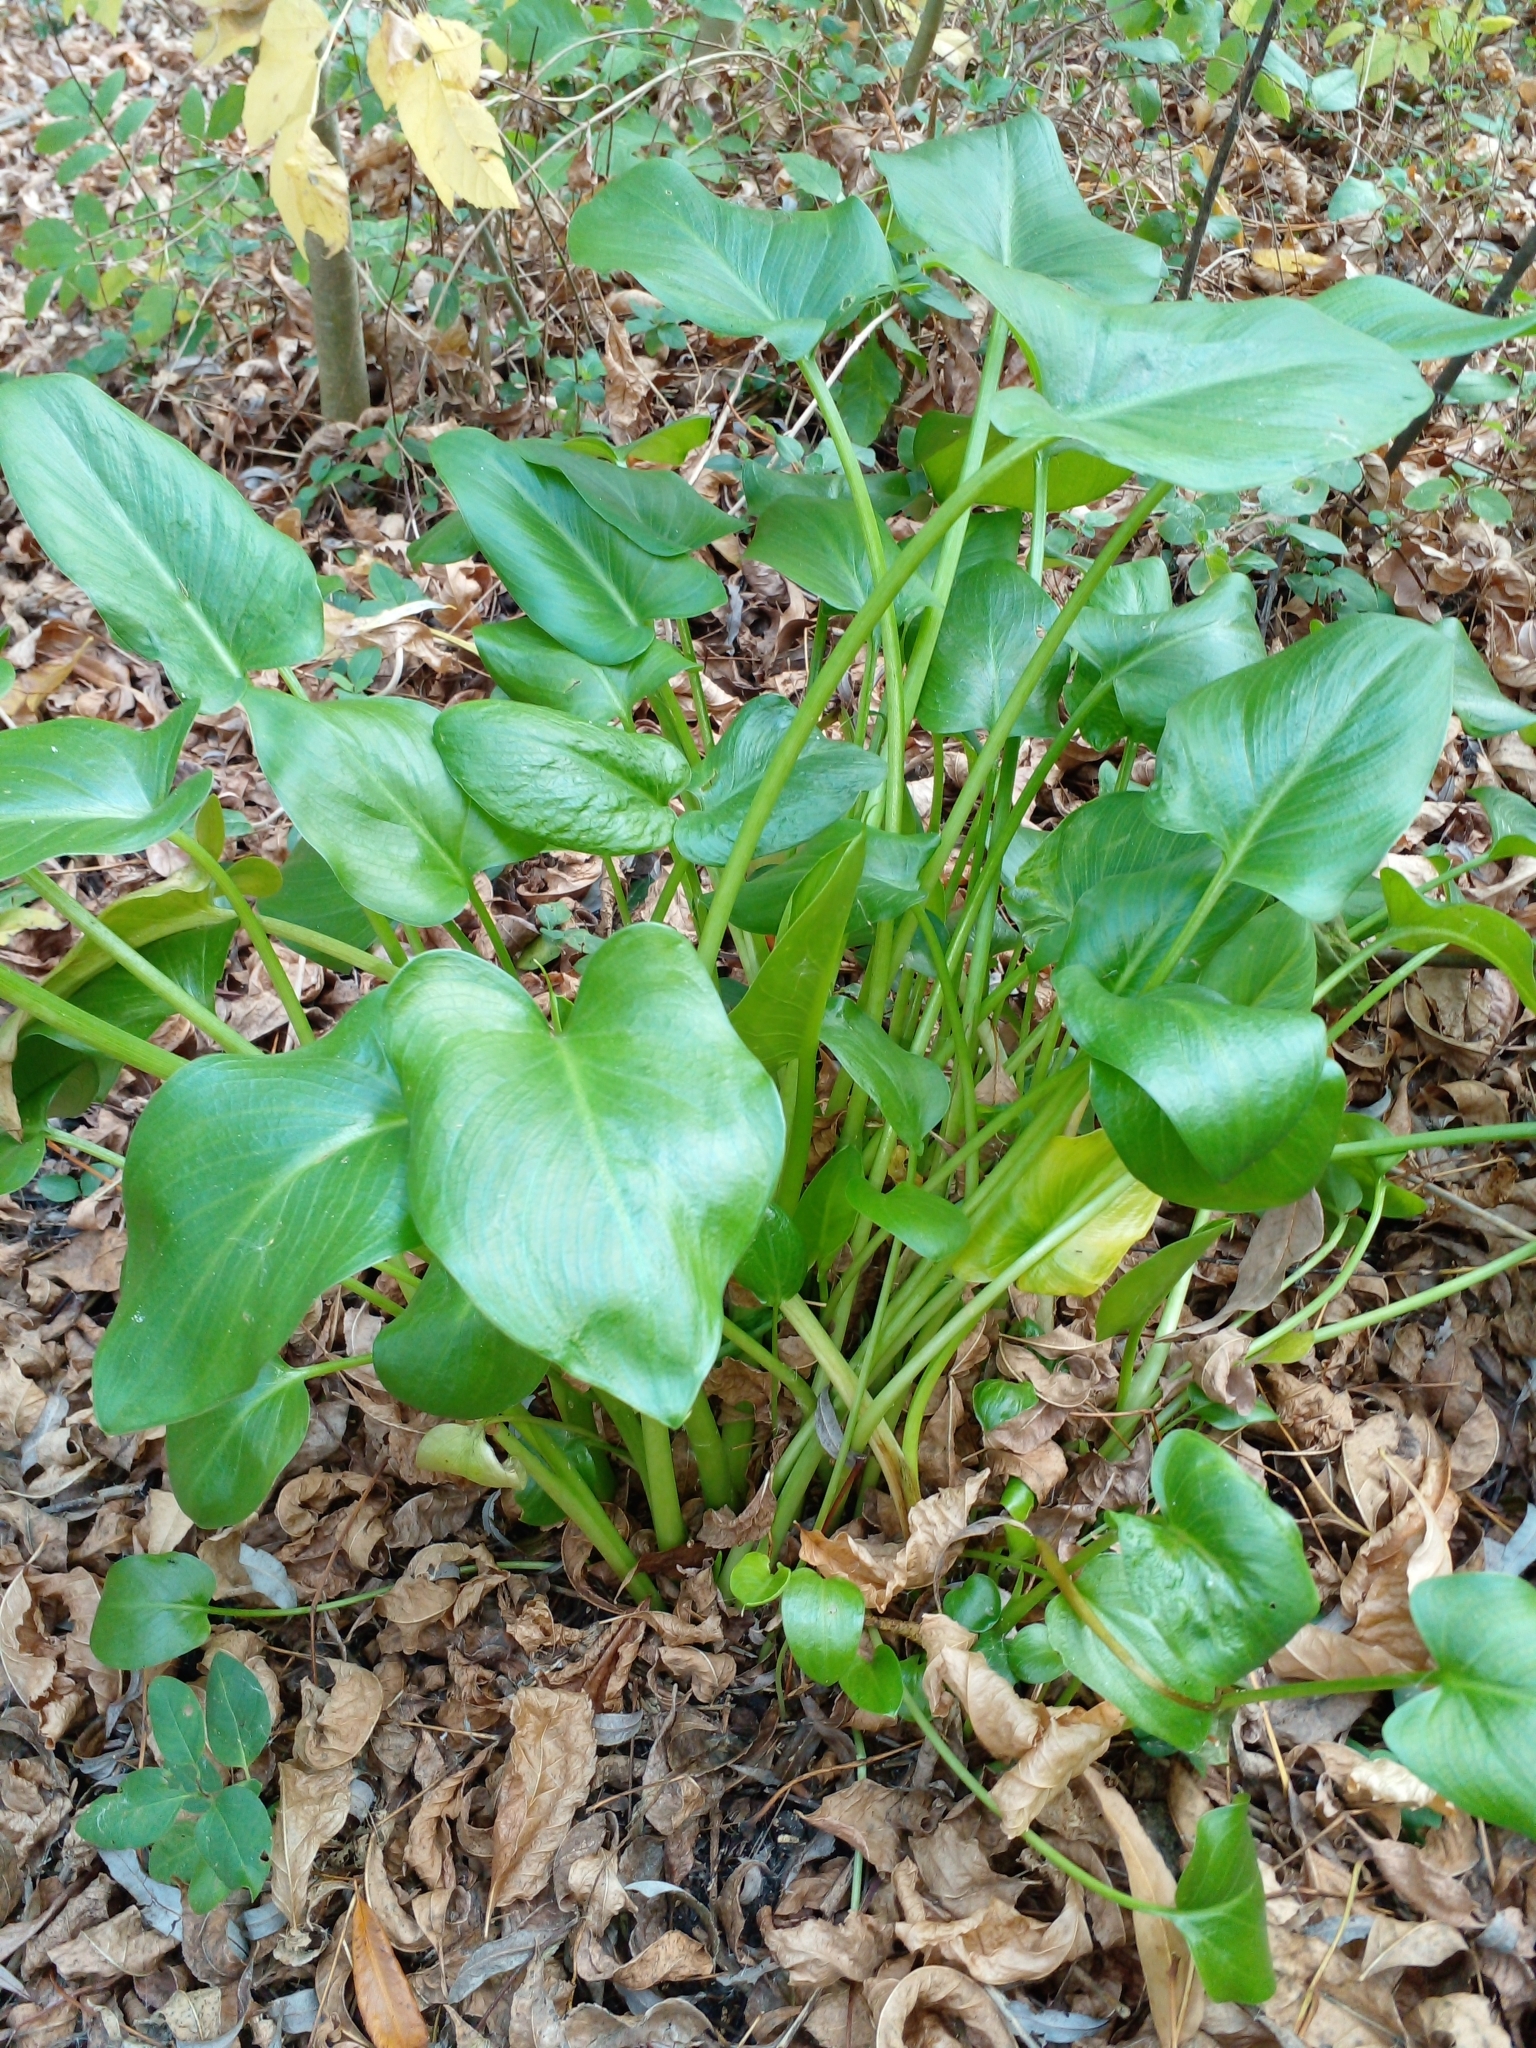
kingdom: Plantae
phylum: Tracheophyta
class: Liliopsida
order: Alismatales
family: Araceae
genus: Zantedeschia
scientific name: Zantedeschia aethiopica
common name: Altar-lily
